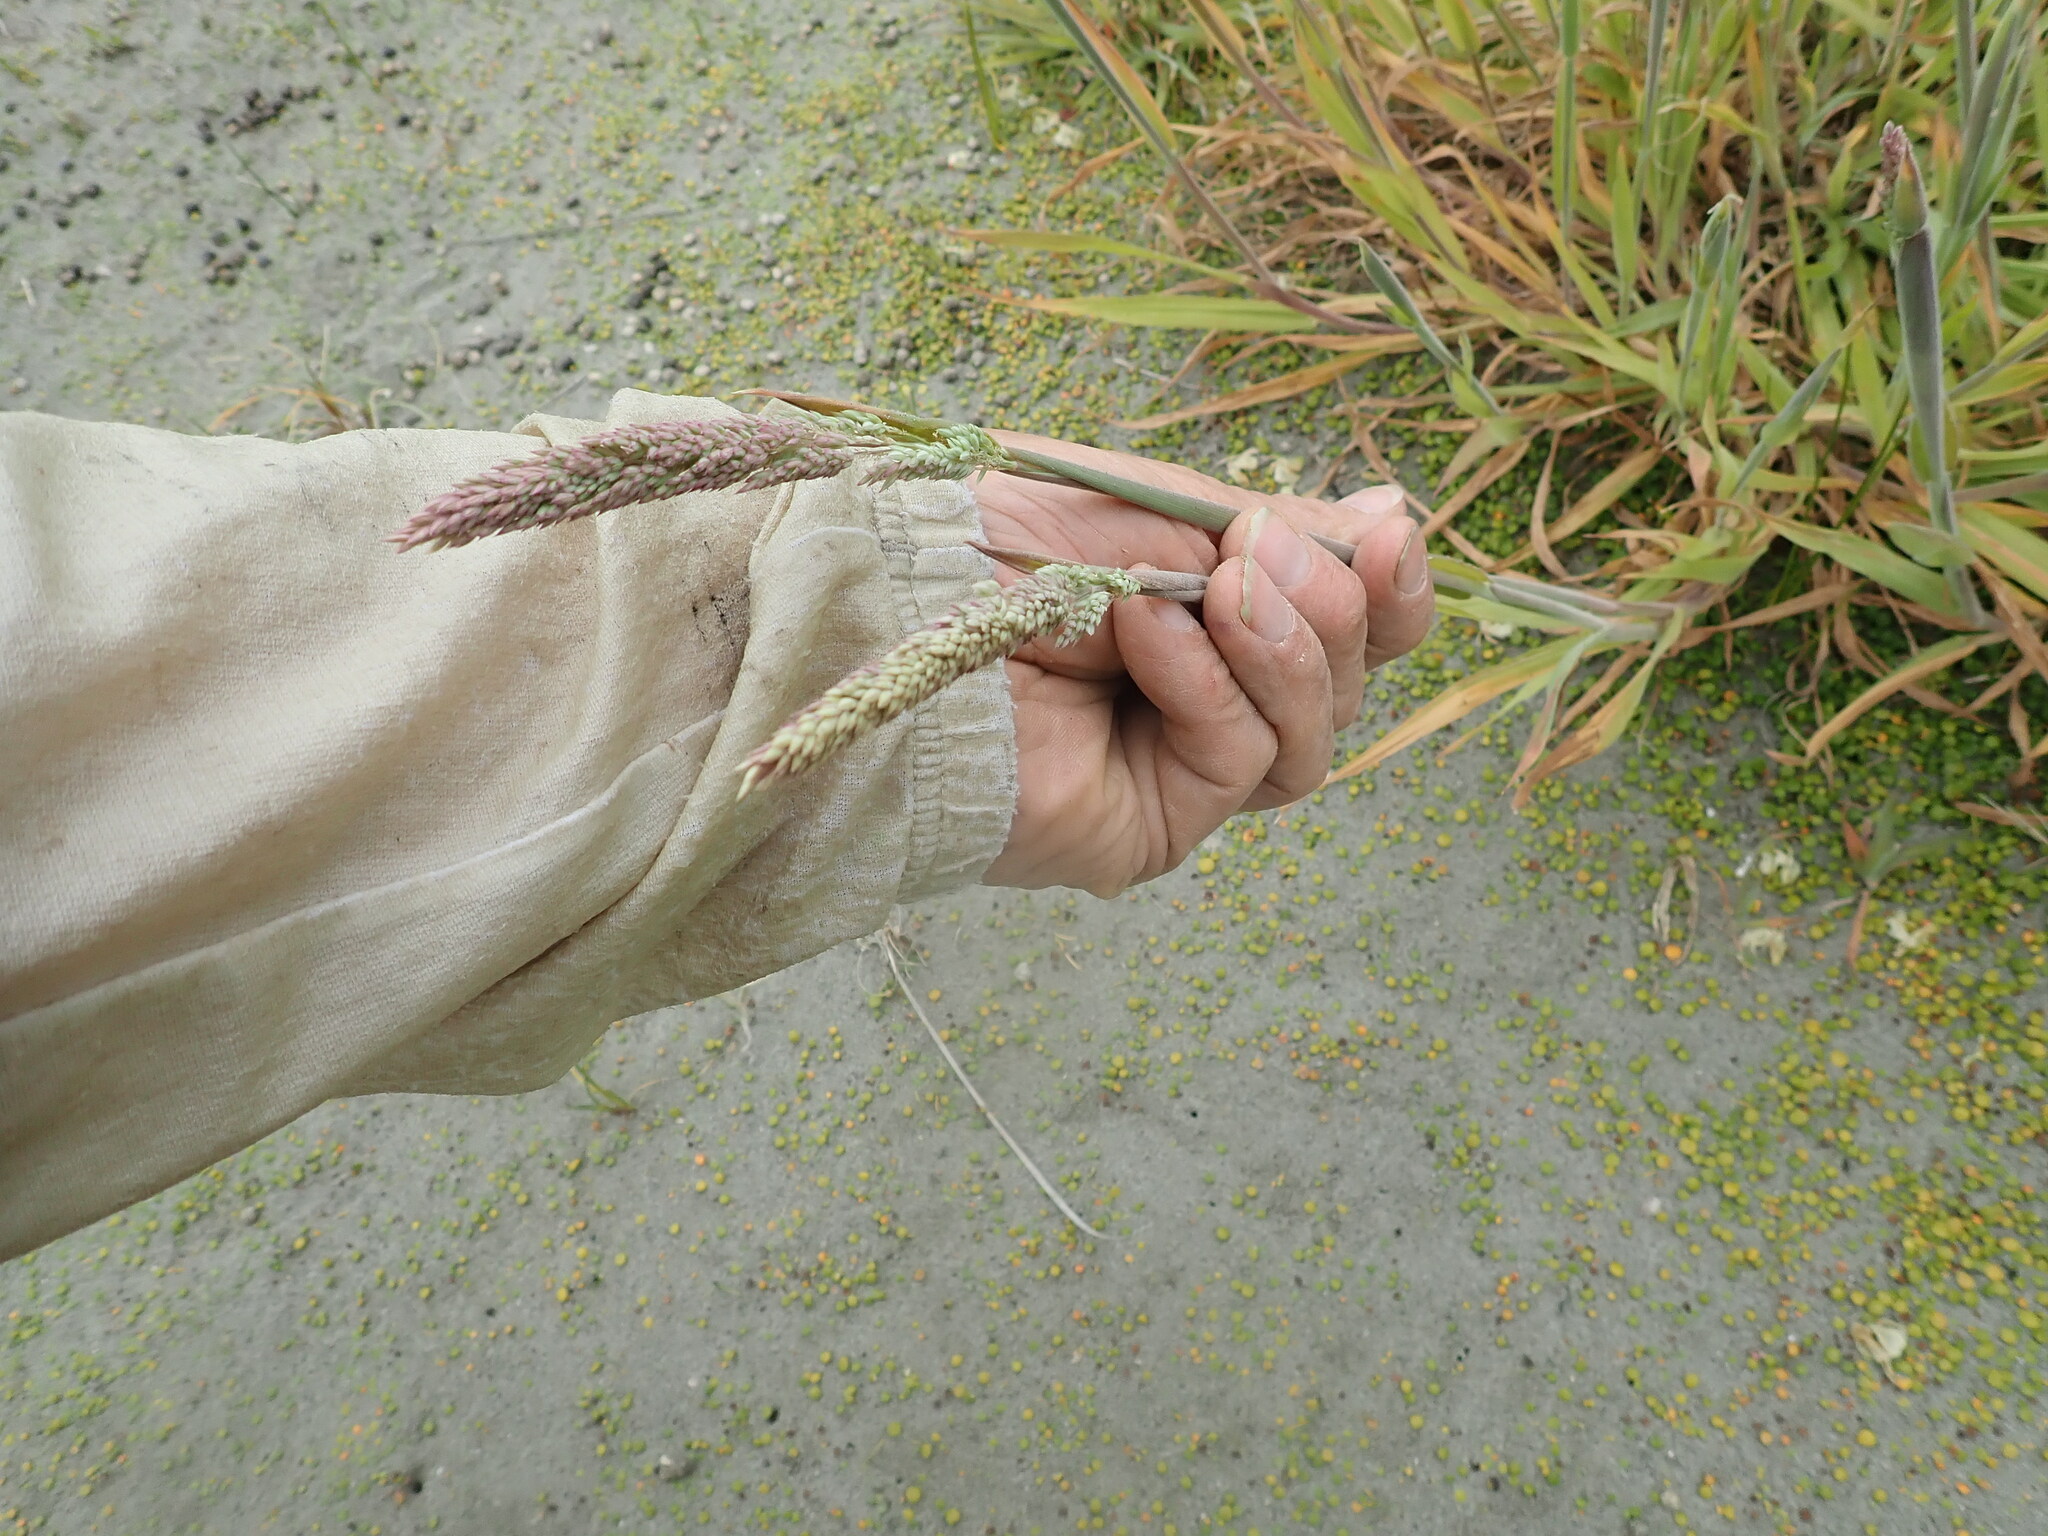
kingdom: Plantae
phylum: Tracheophyta
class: Liliopsida
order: Poales
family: Poaceae
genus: Holcus
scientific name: Holcus lanatus
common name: Yorkshire-fog
